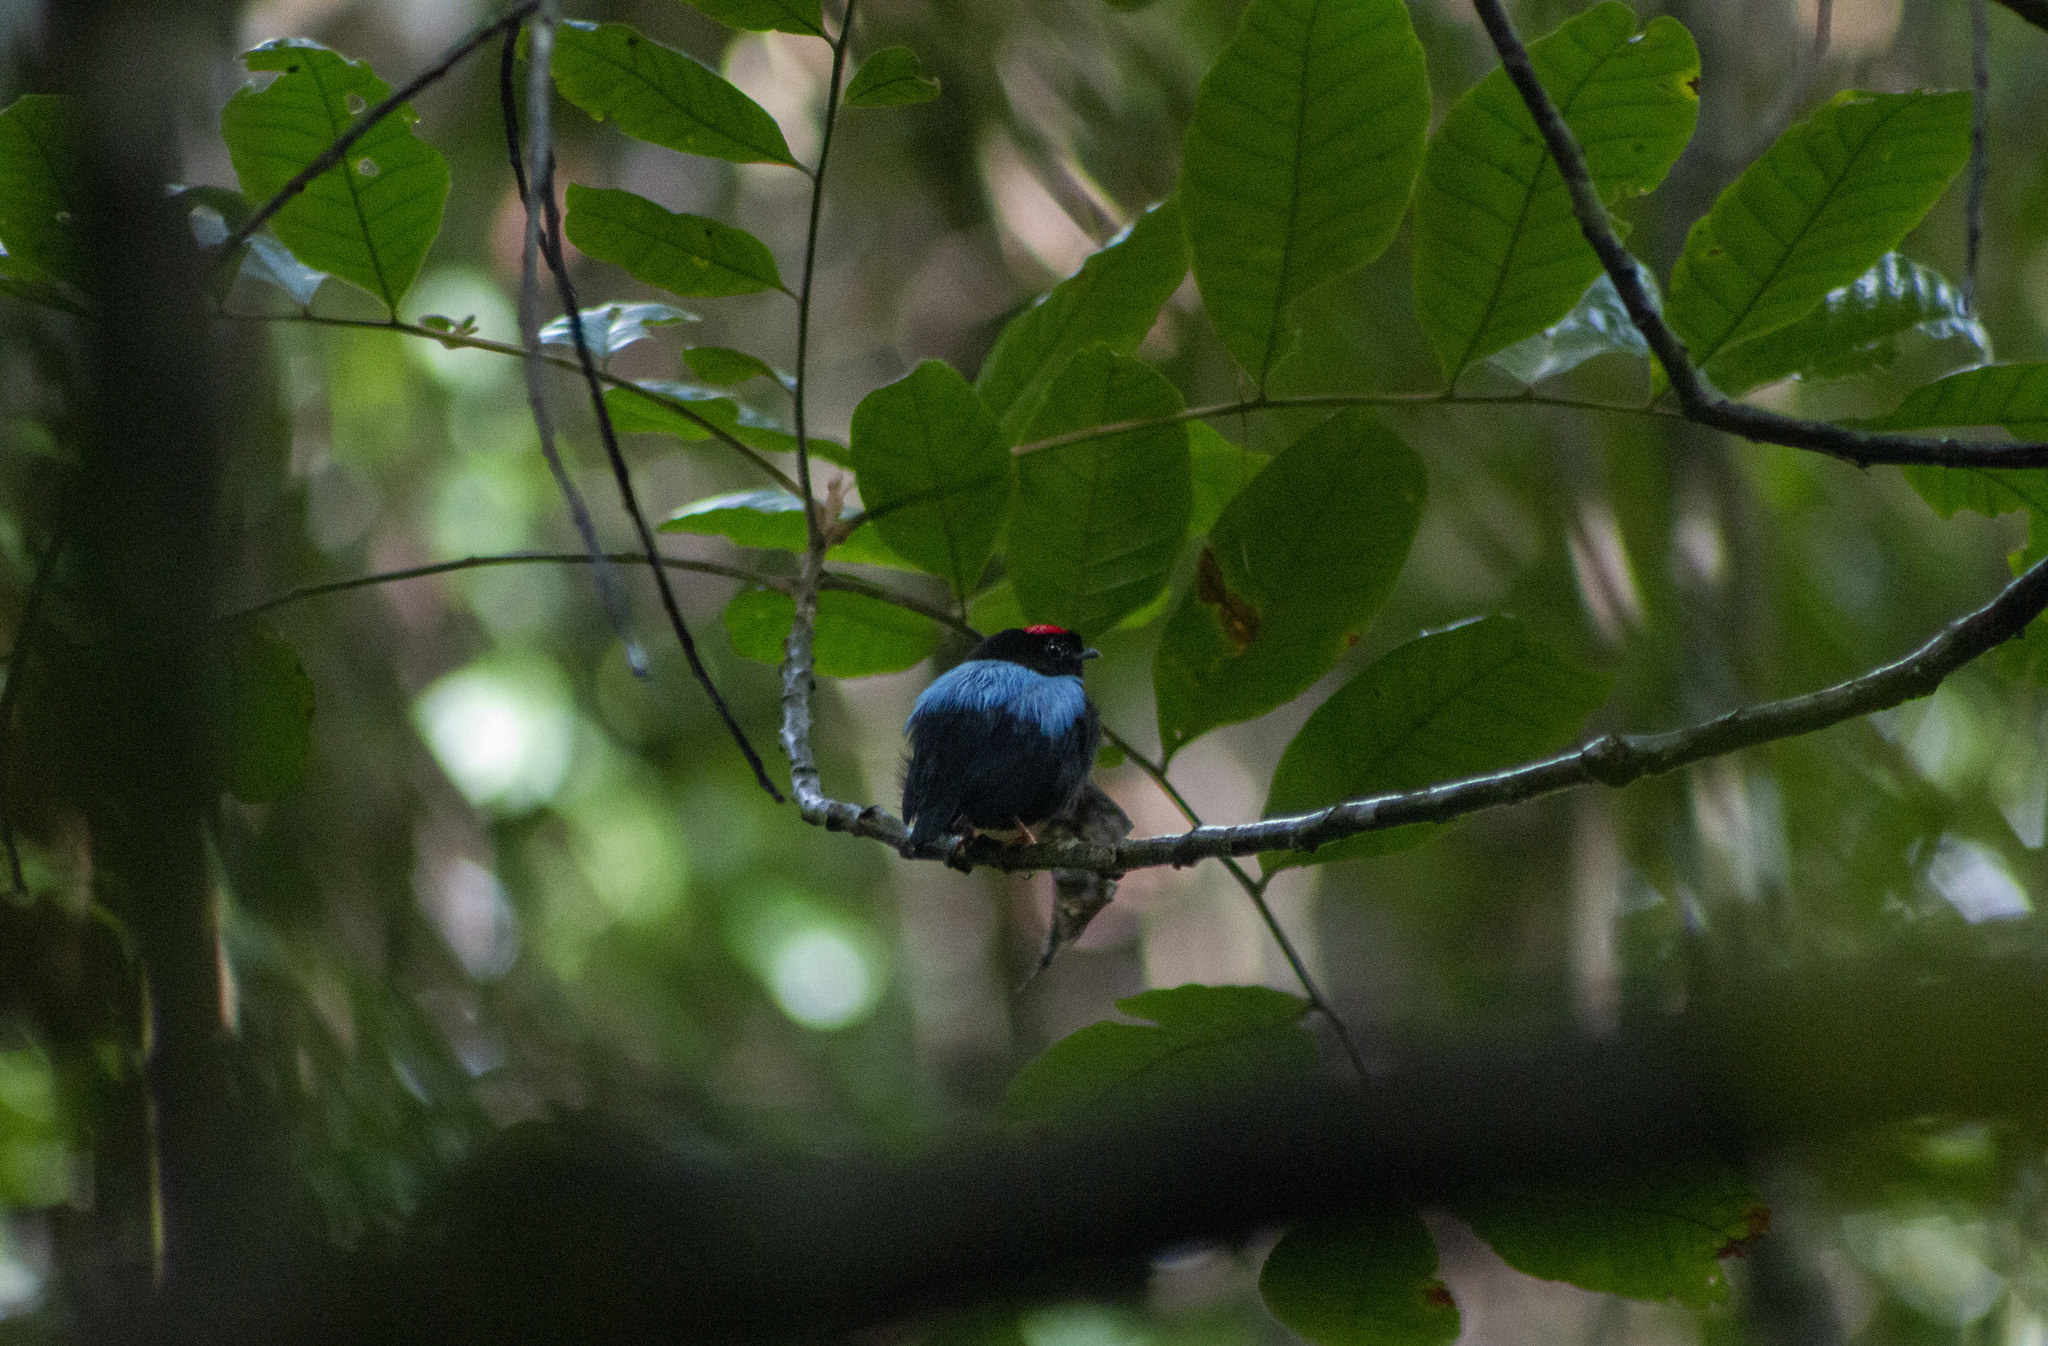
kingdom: Animalia
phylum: Chordata
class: Aves
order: Passeriformes
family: Pipridae
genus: Chiroxiphia
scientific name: Chiroxiphia pareola
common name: Blue-backed manakin
